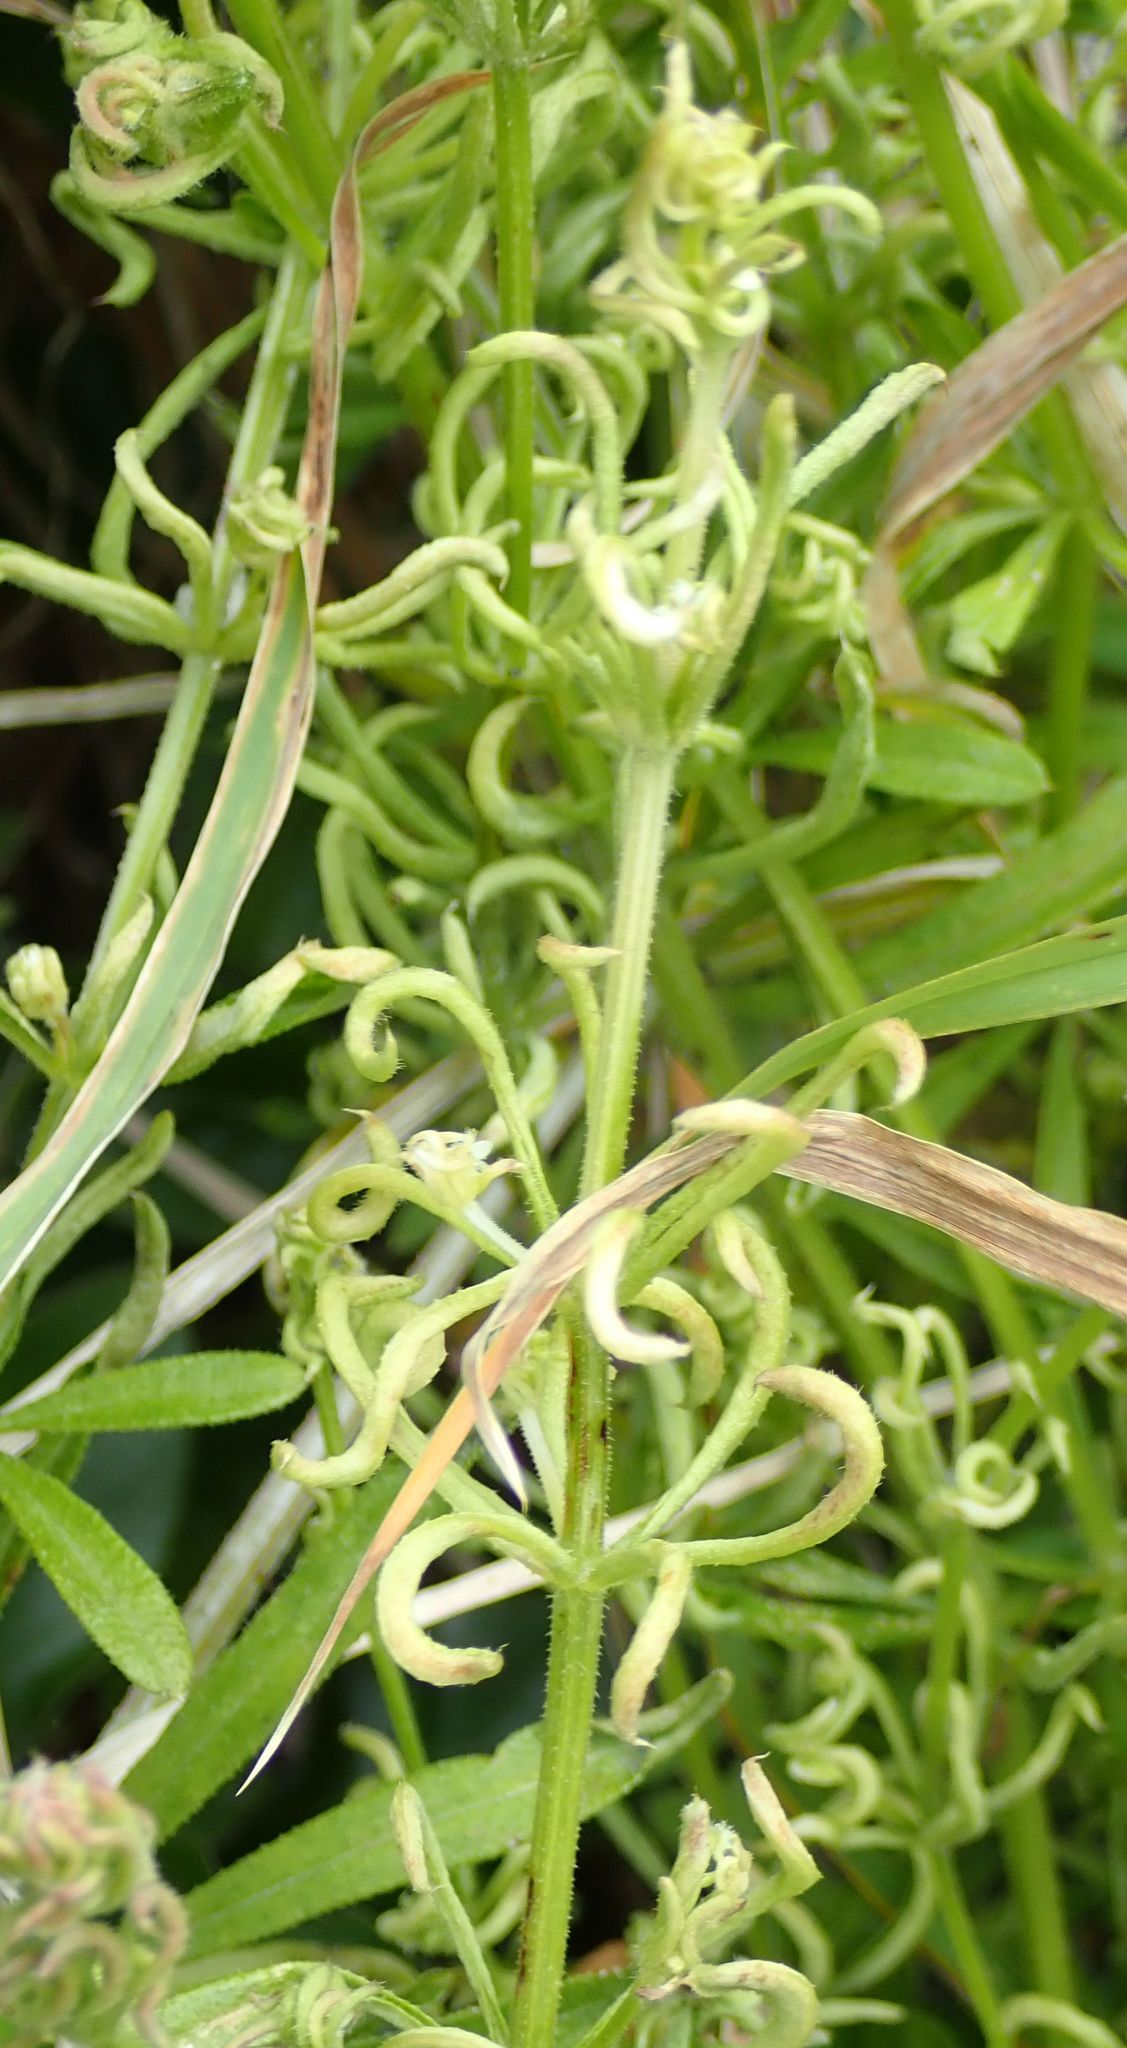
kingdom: Animalia
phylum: Arthropoda
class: Arachnida
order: Trombidiformes
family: Eriophyidae
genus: Cecidophyes
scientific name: Cecidophyes rouhollahi
